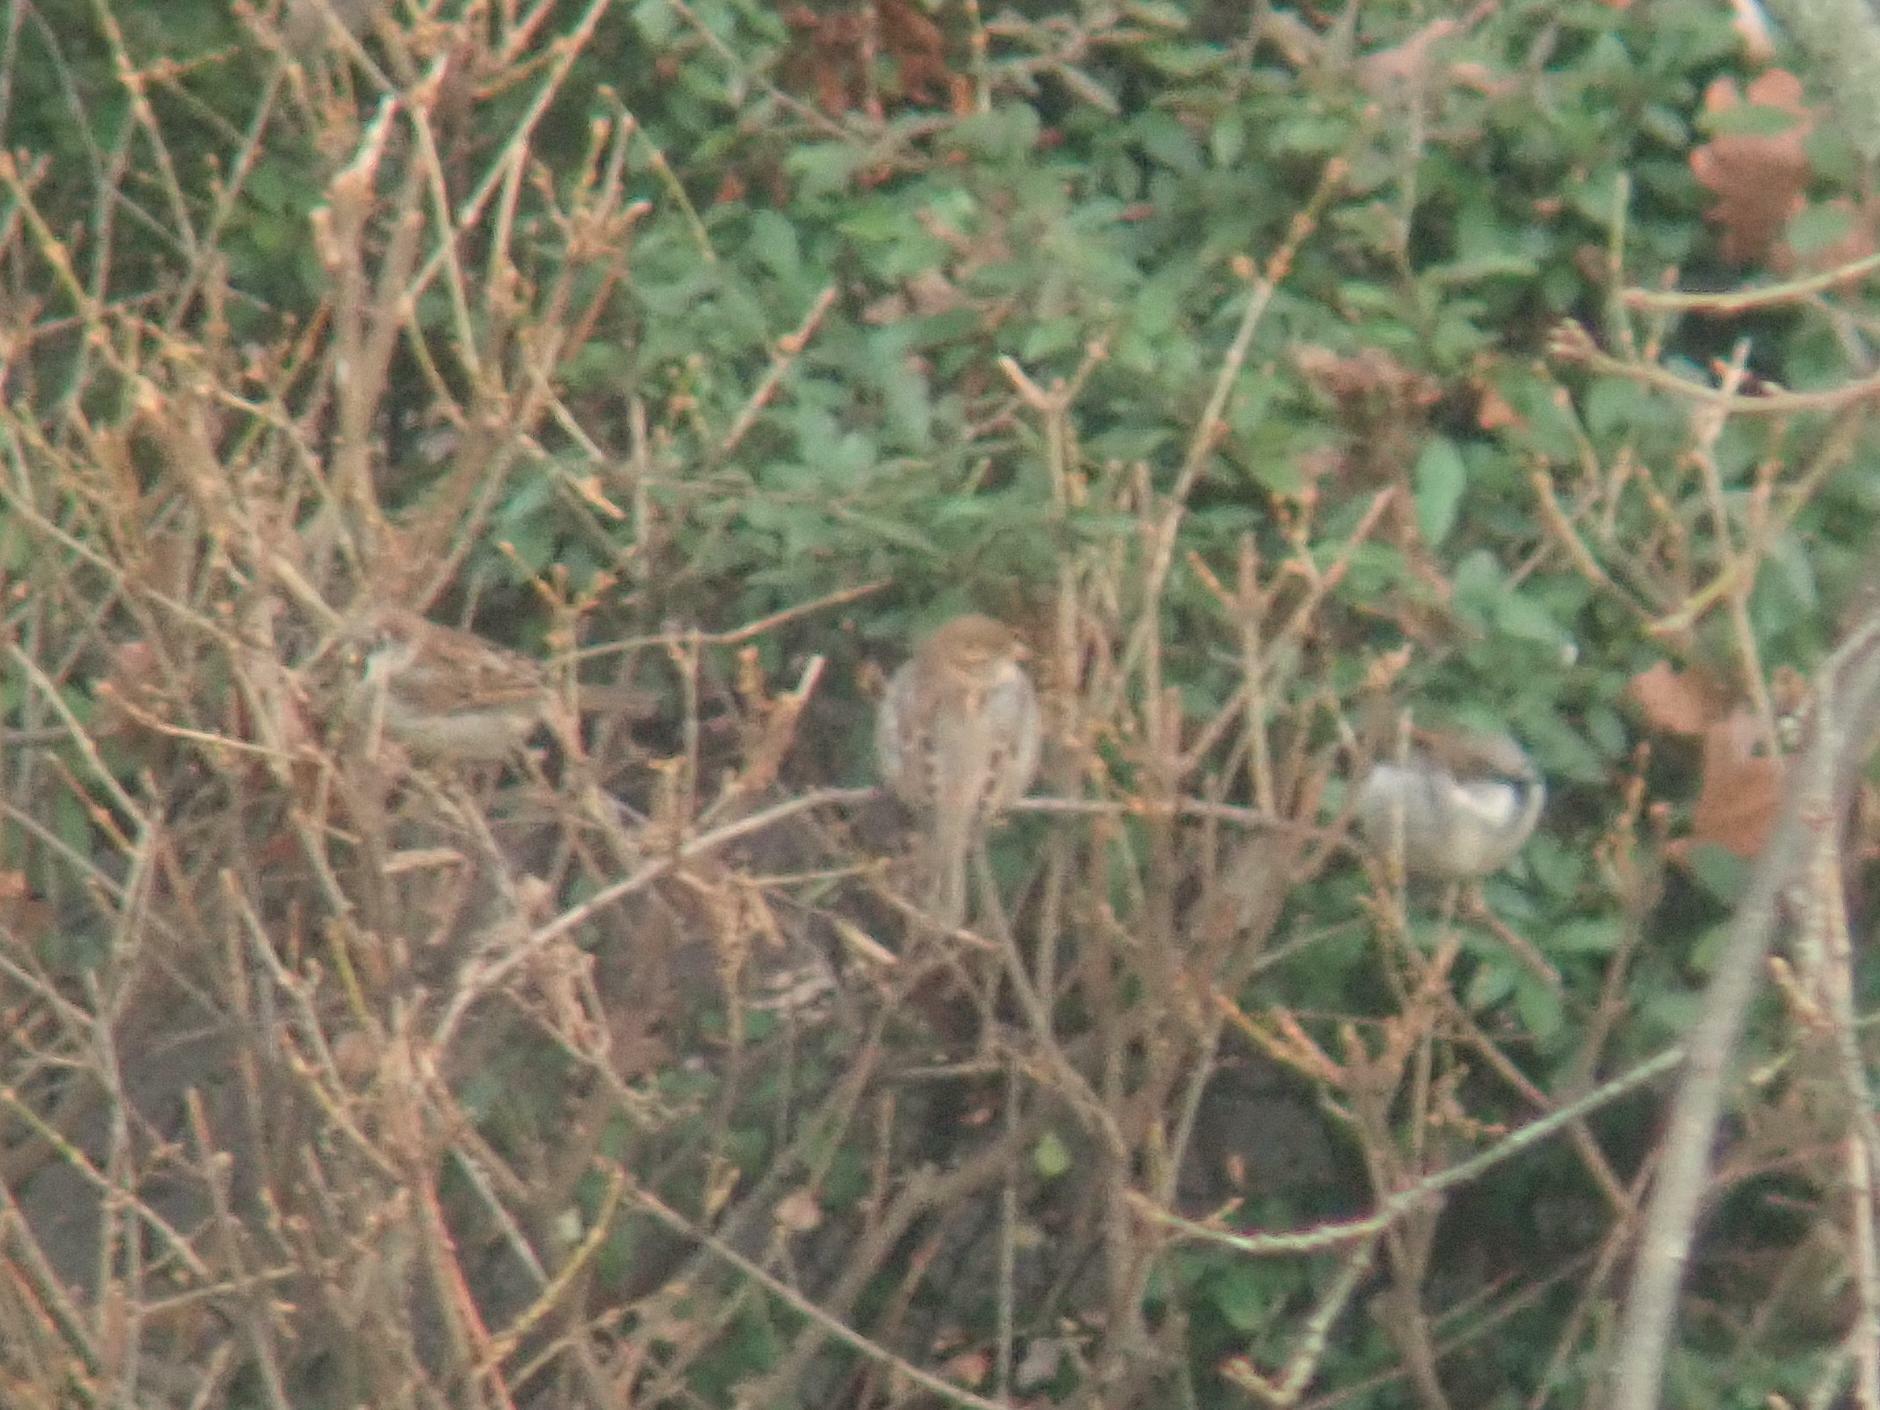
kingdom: Animalia
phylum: Chordata
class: Aves
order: Passeriformes
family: Passeridae
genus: Passer
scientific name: Passer domesticus
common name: House sparrow
